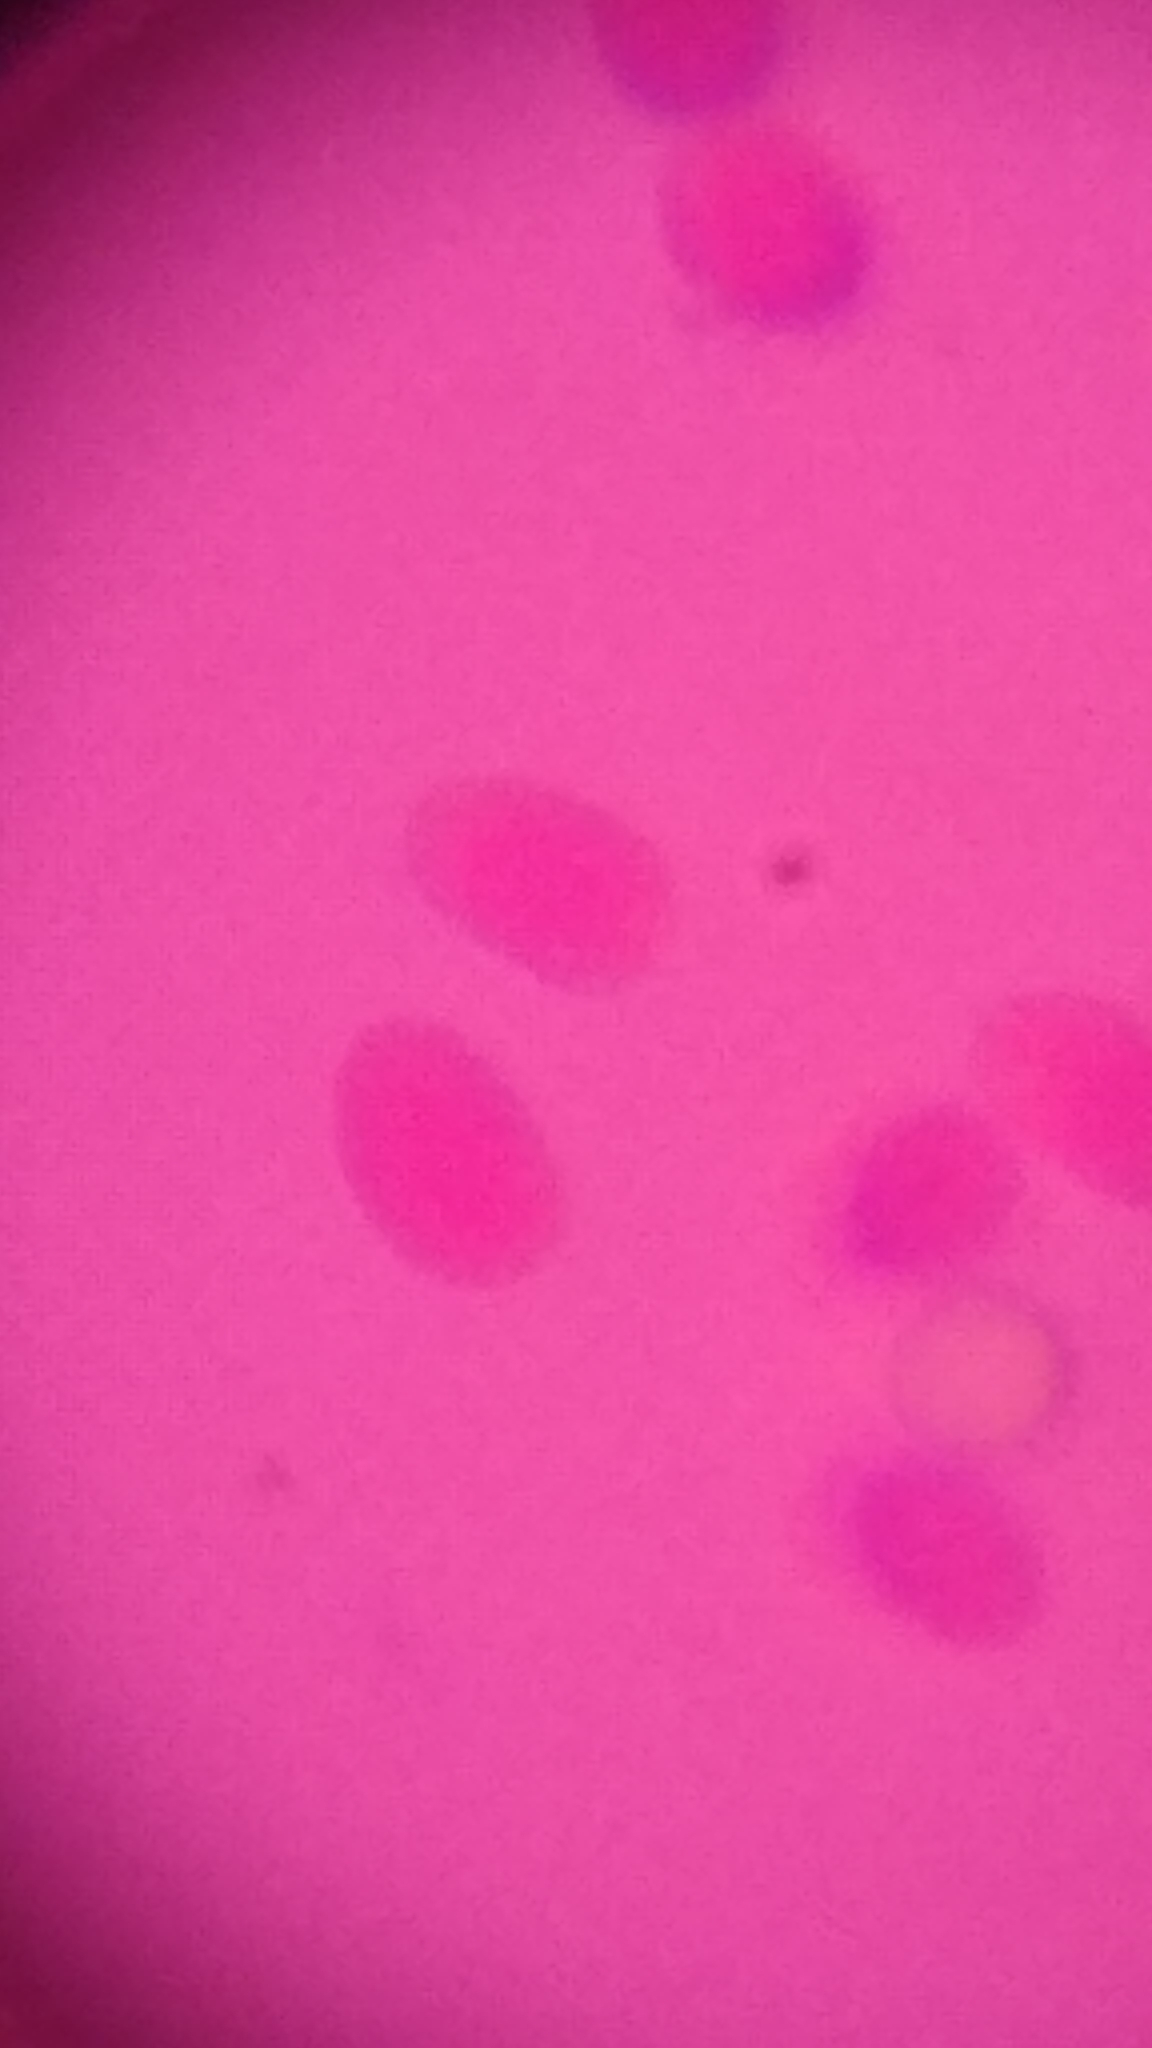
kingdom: Fungi
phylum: Basidiomycota
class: Agaricomycetes
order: Russulales
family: Stereaceae
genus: Gloeocystidiellum
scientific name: Gloeocystidiellum porosum
